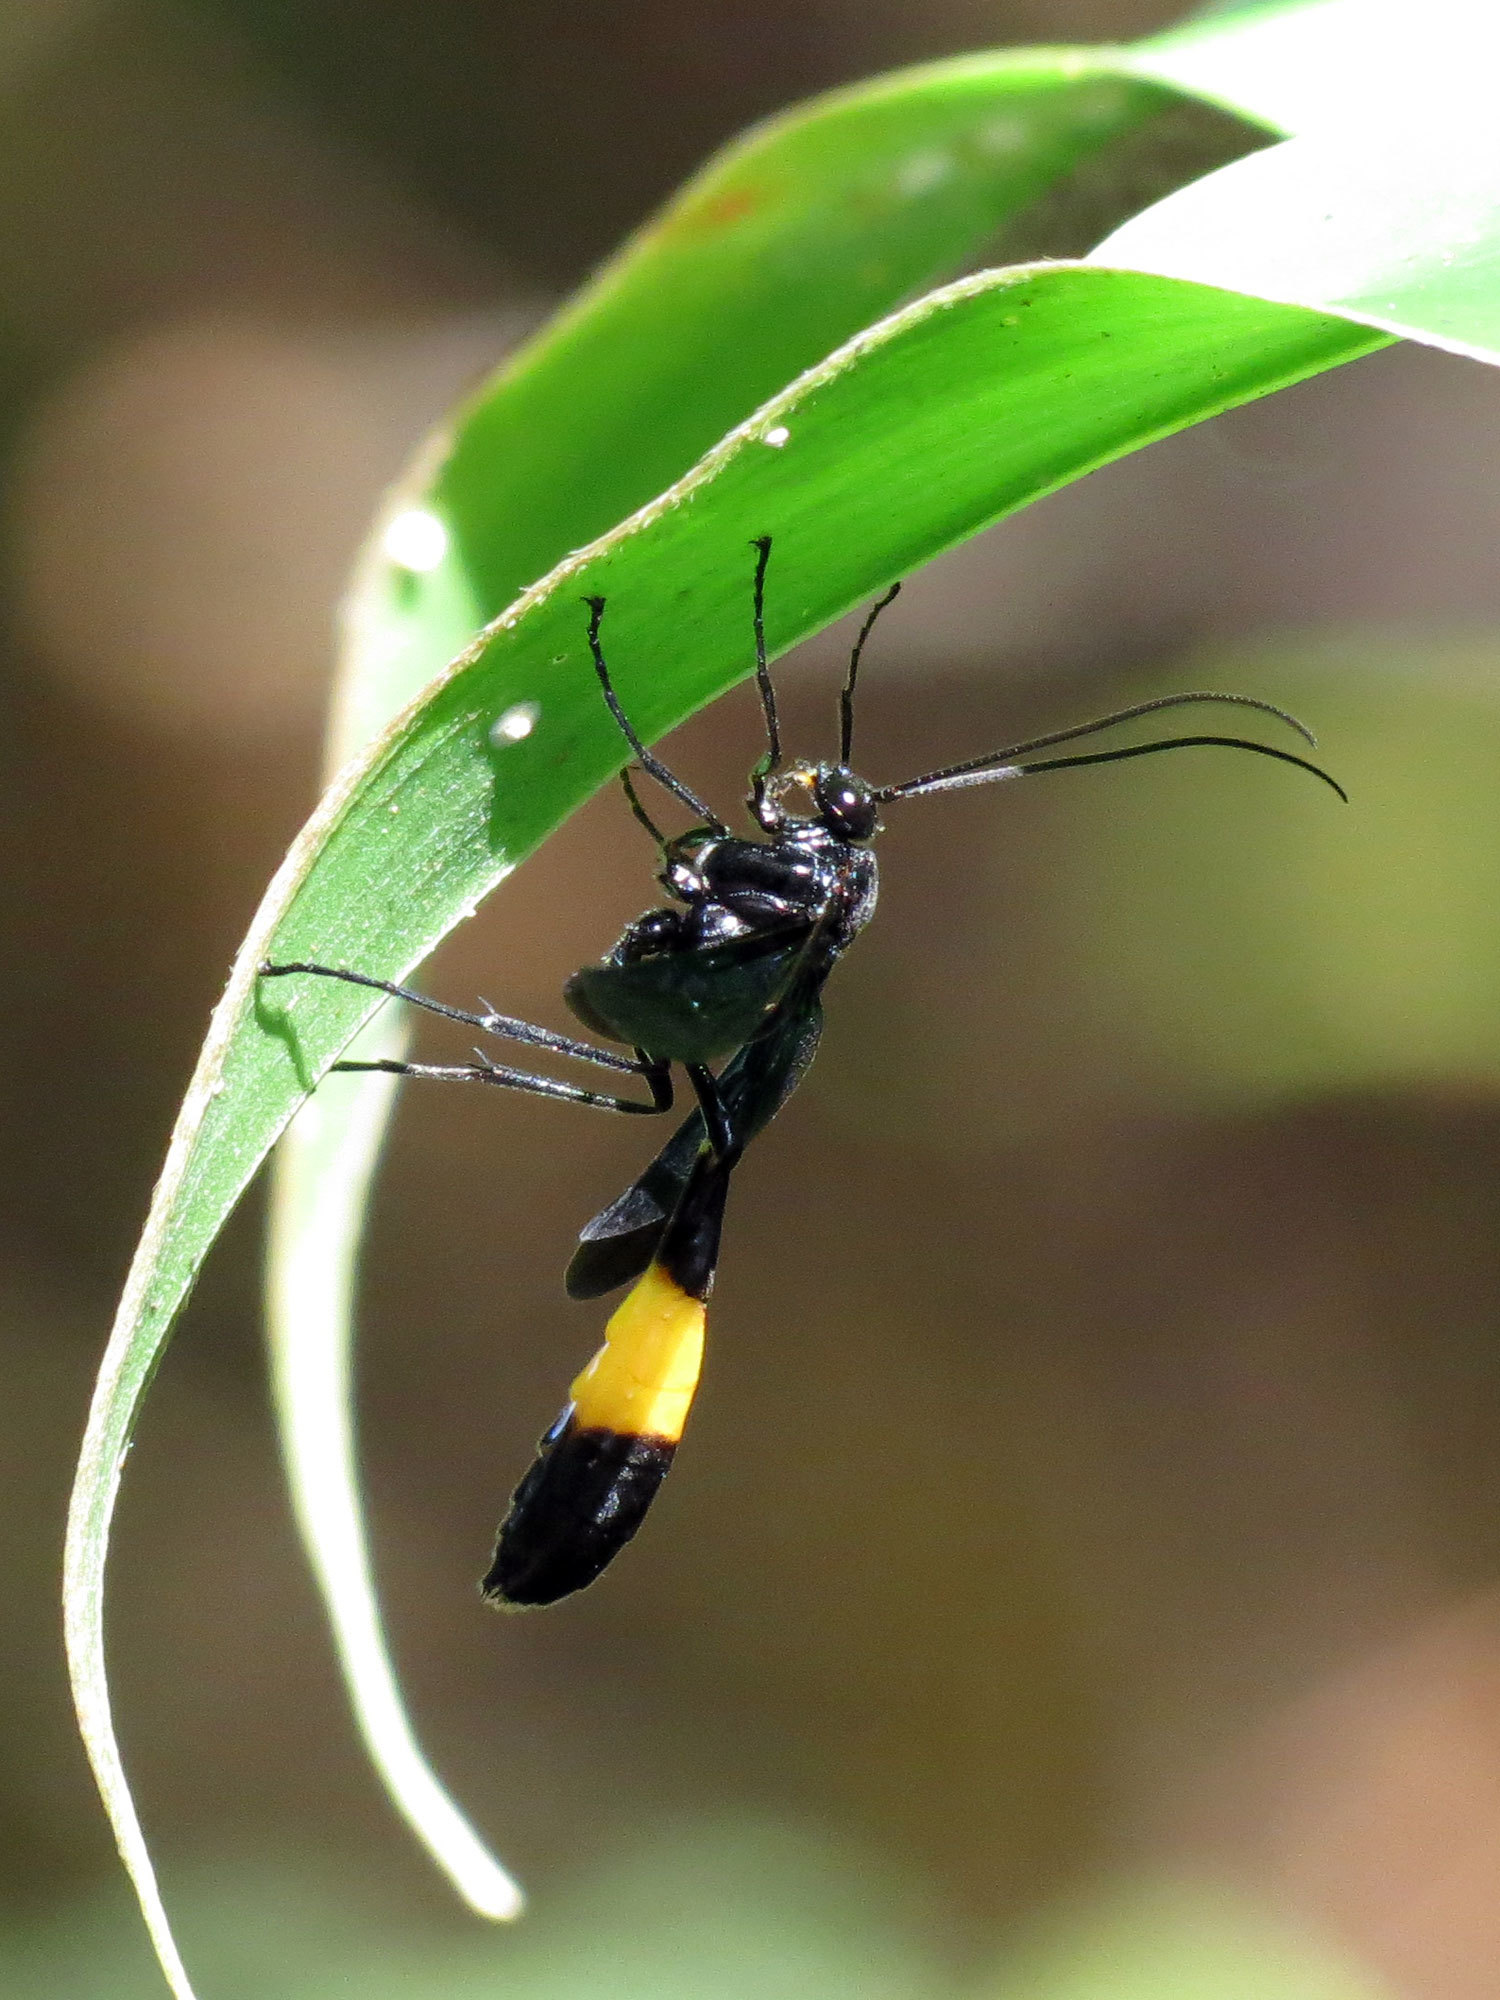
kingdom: Animalia
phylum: Arthropoda
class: Insecta
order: Hymenoptera
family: Ichneumonidae
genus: Thyreodon
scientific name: Thyreodon whitfieldi
